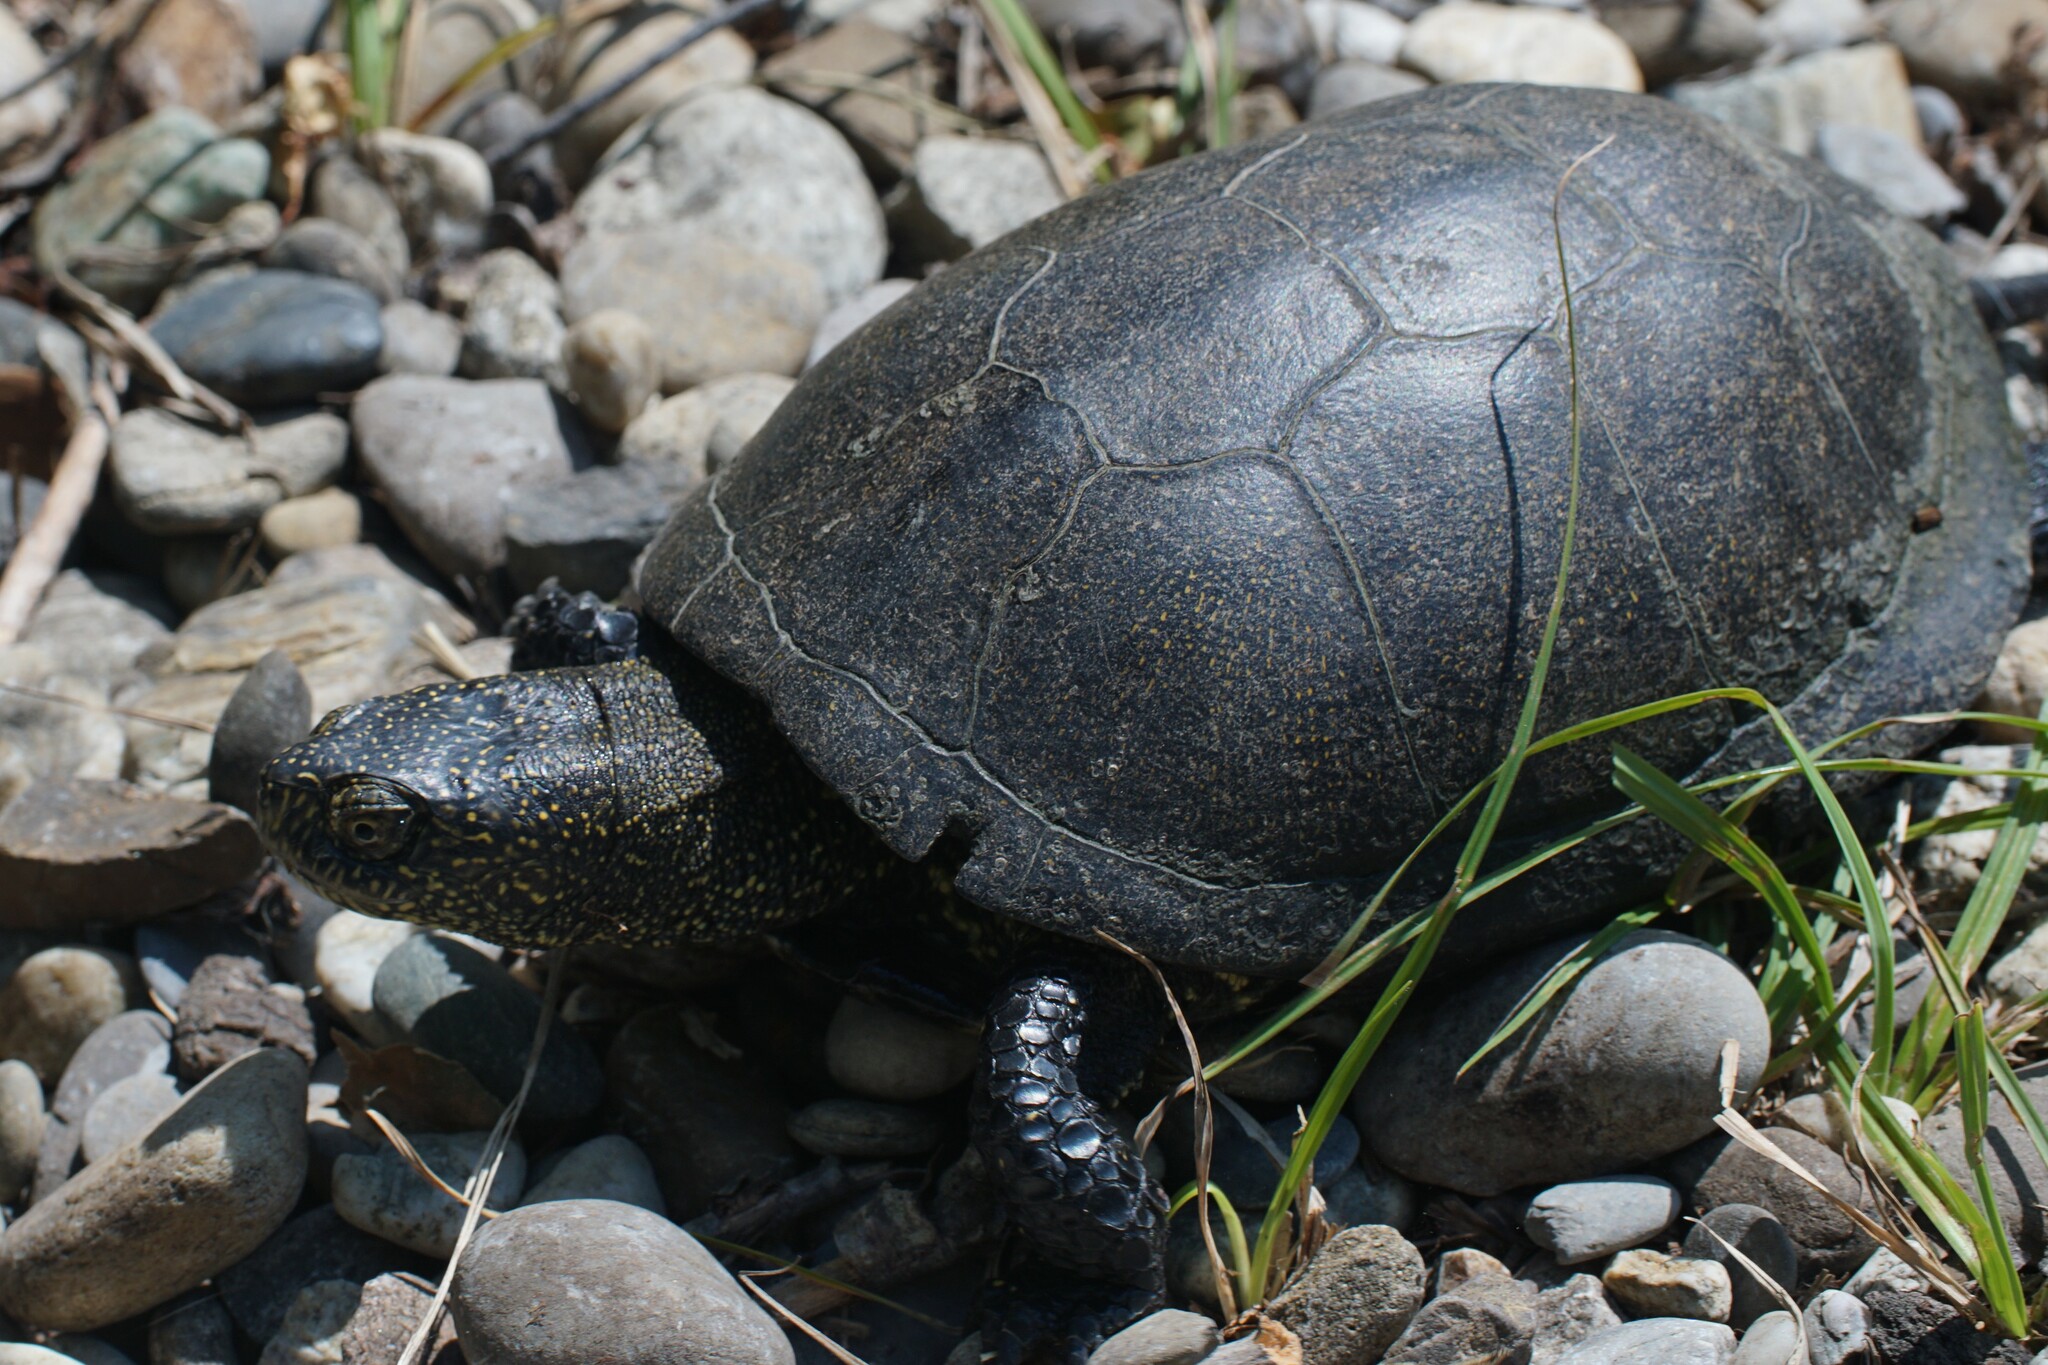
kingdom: Animalia
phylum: Chordata
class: Testudines
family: Emydidae
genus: Emys
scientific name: Emys orbicularis
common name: European pond turtle
